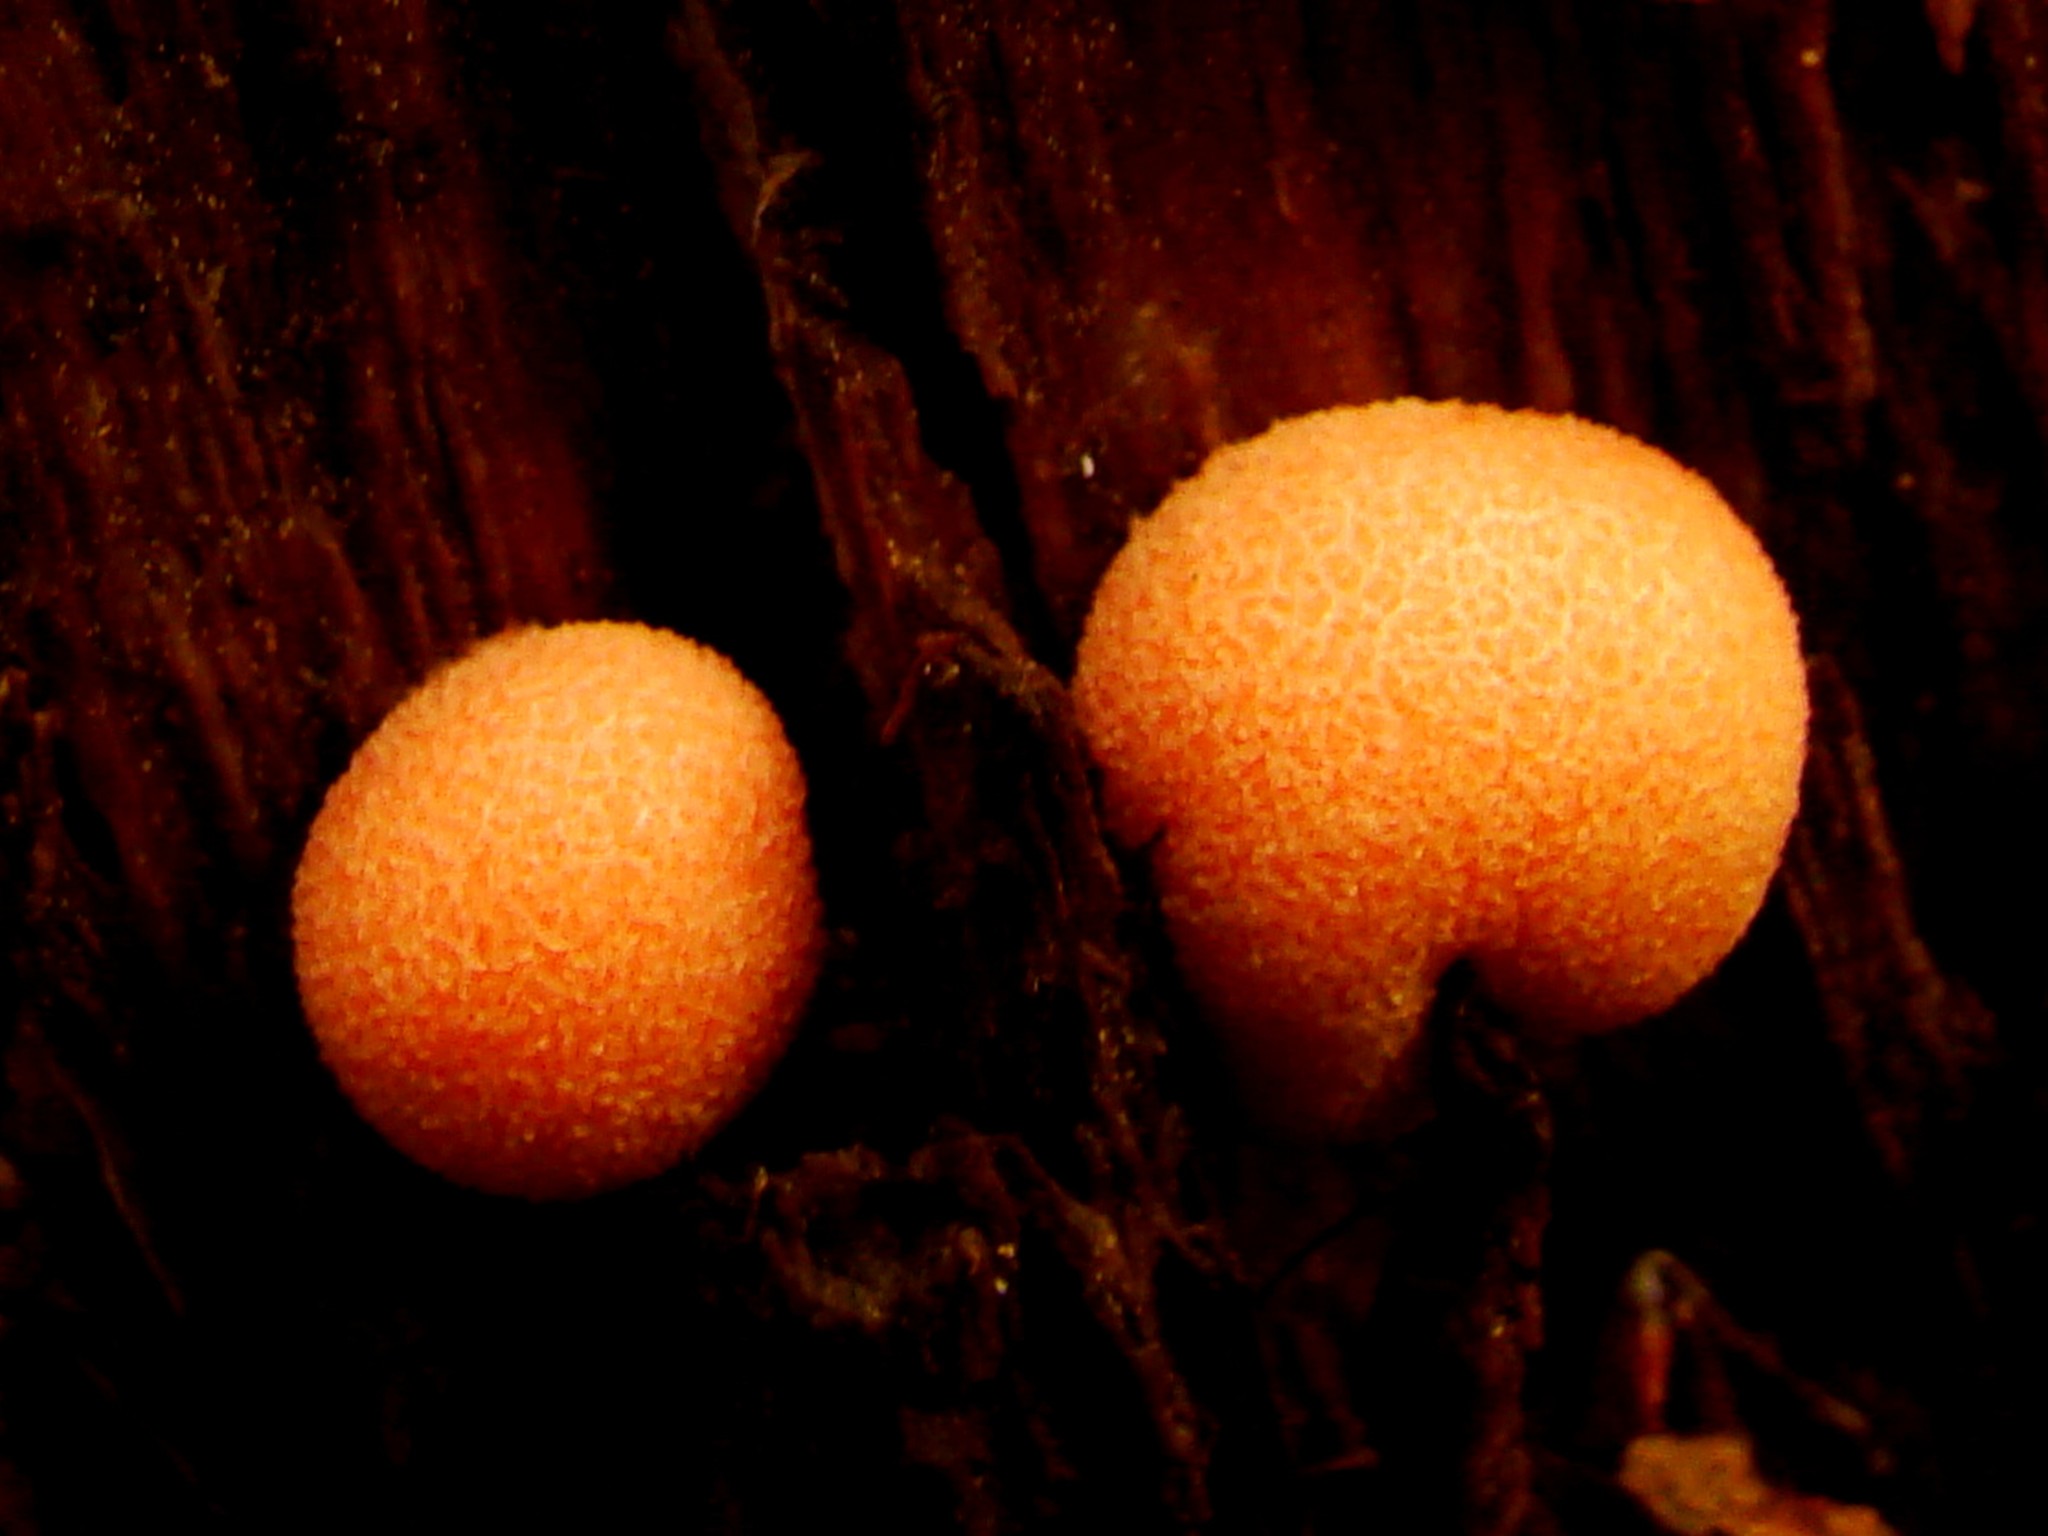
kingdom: Protozoa
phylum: Mycetozoa
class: Myxomycetes
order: Cribrariales
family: Tubiferaceae
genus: Lycogala
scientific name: Lycogala epidendrum
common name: Wolf's milk
